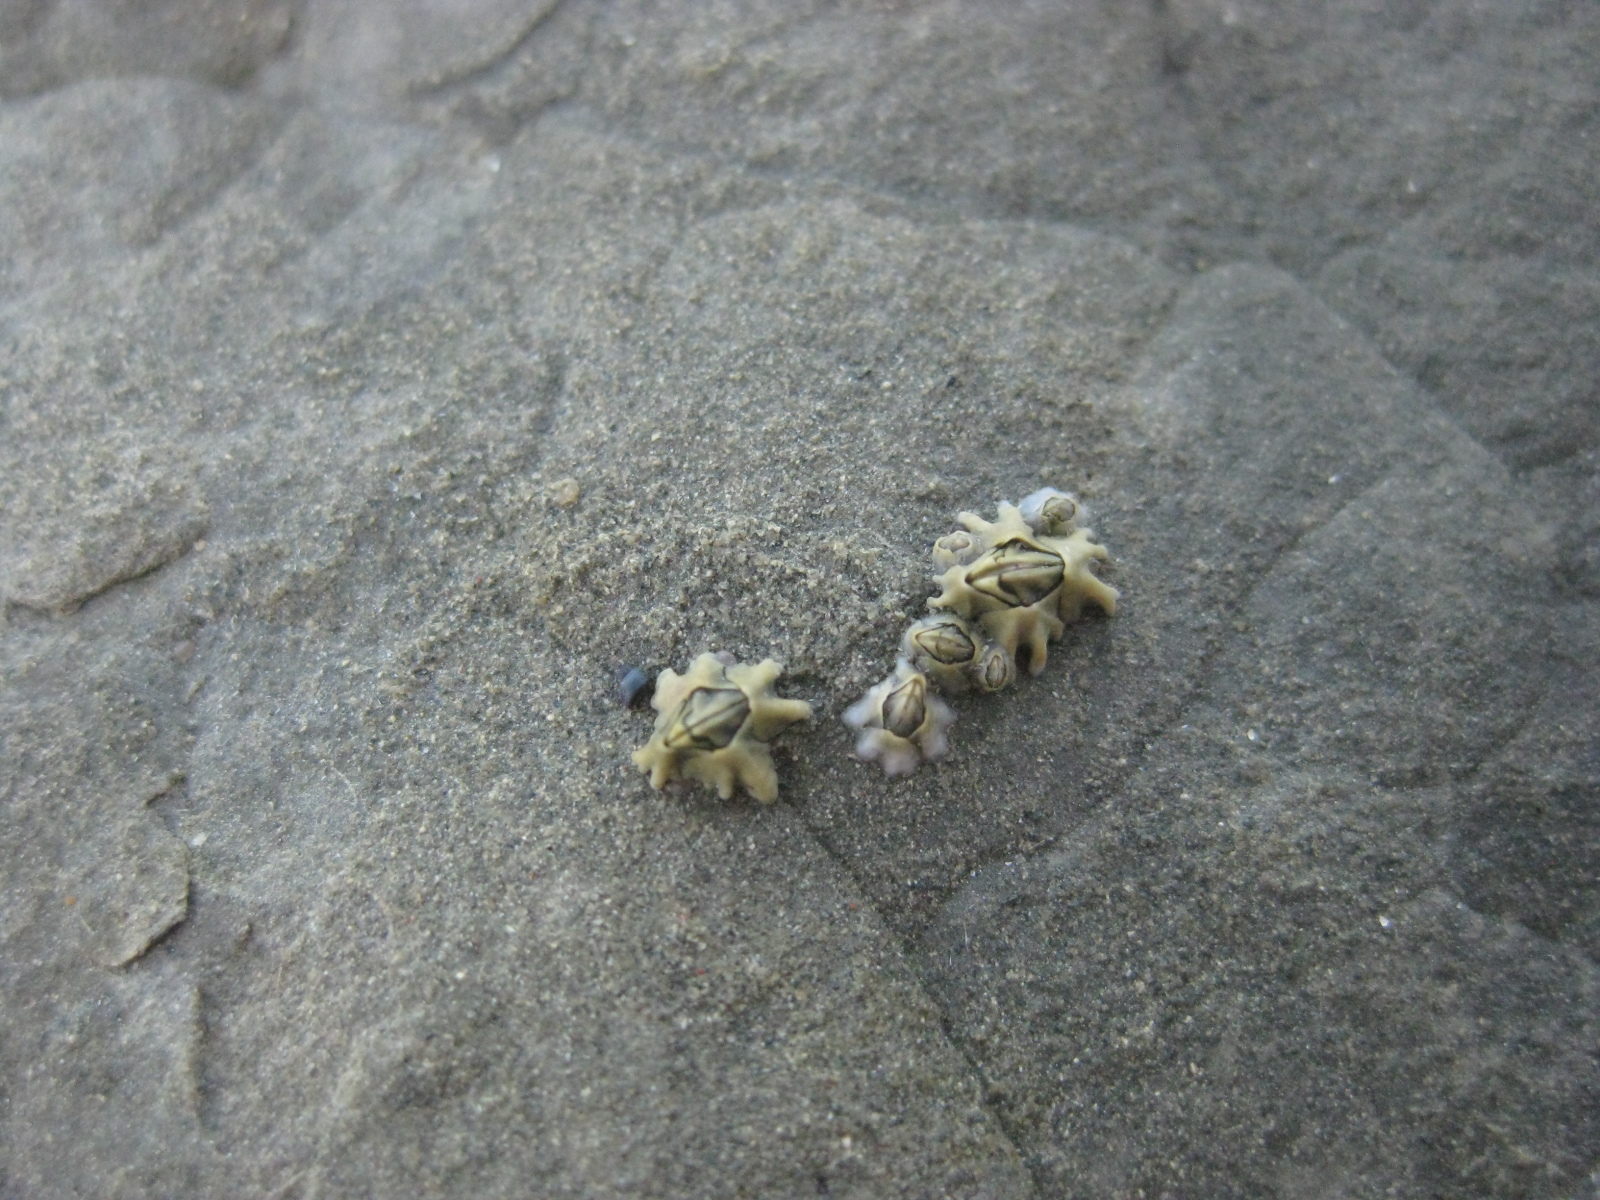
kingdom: Animalia
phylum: Arthropoda
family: Elminiidae
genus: Austrominius
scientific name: Austrominius modestus
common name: Australasian barnacle
